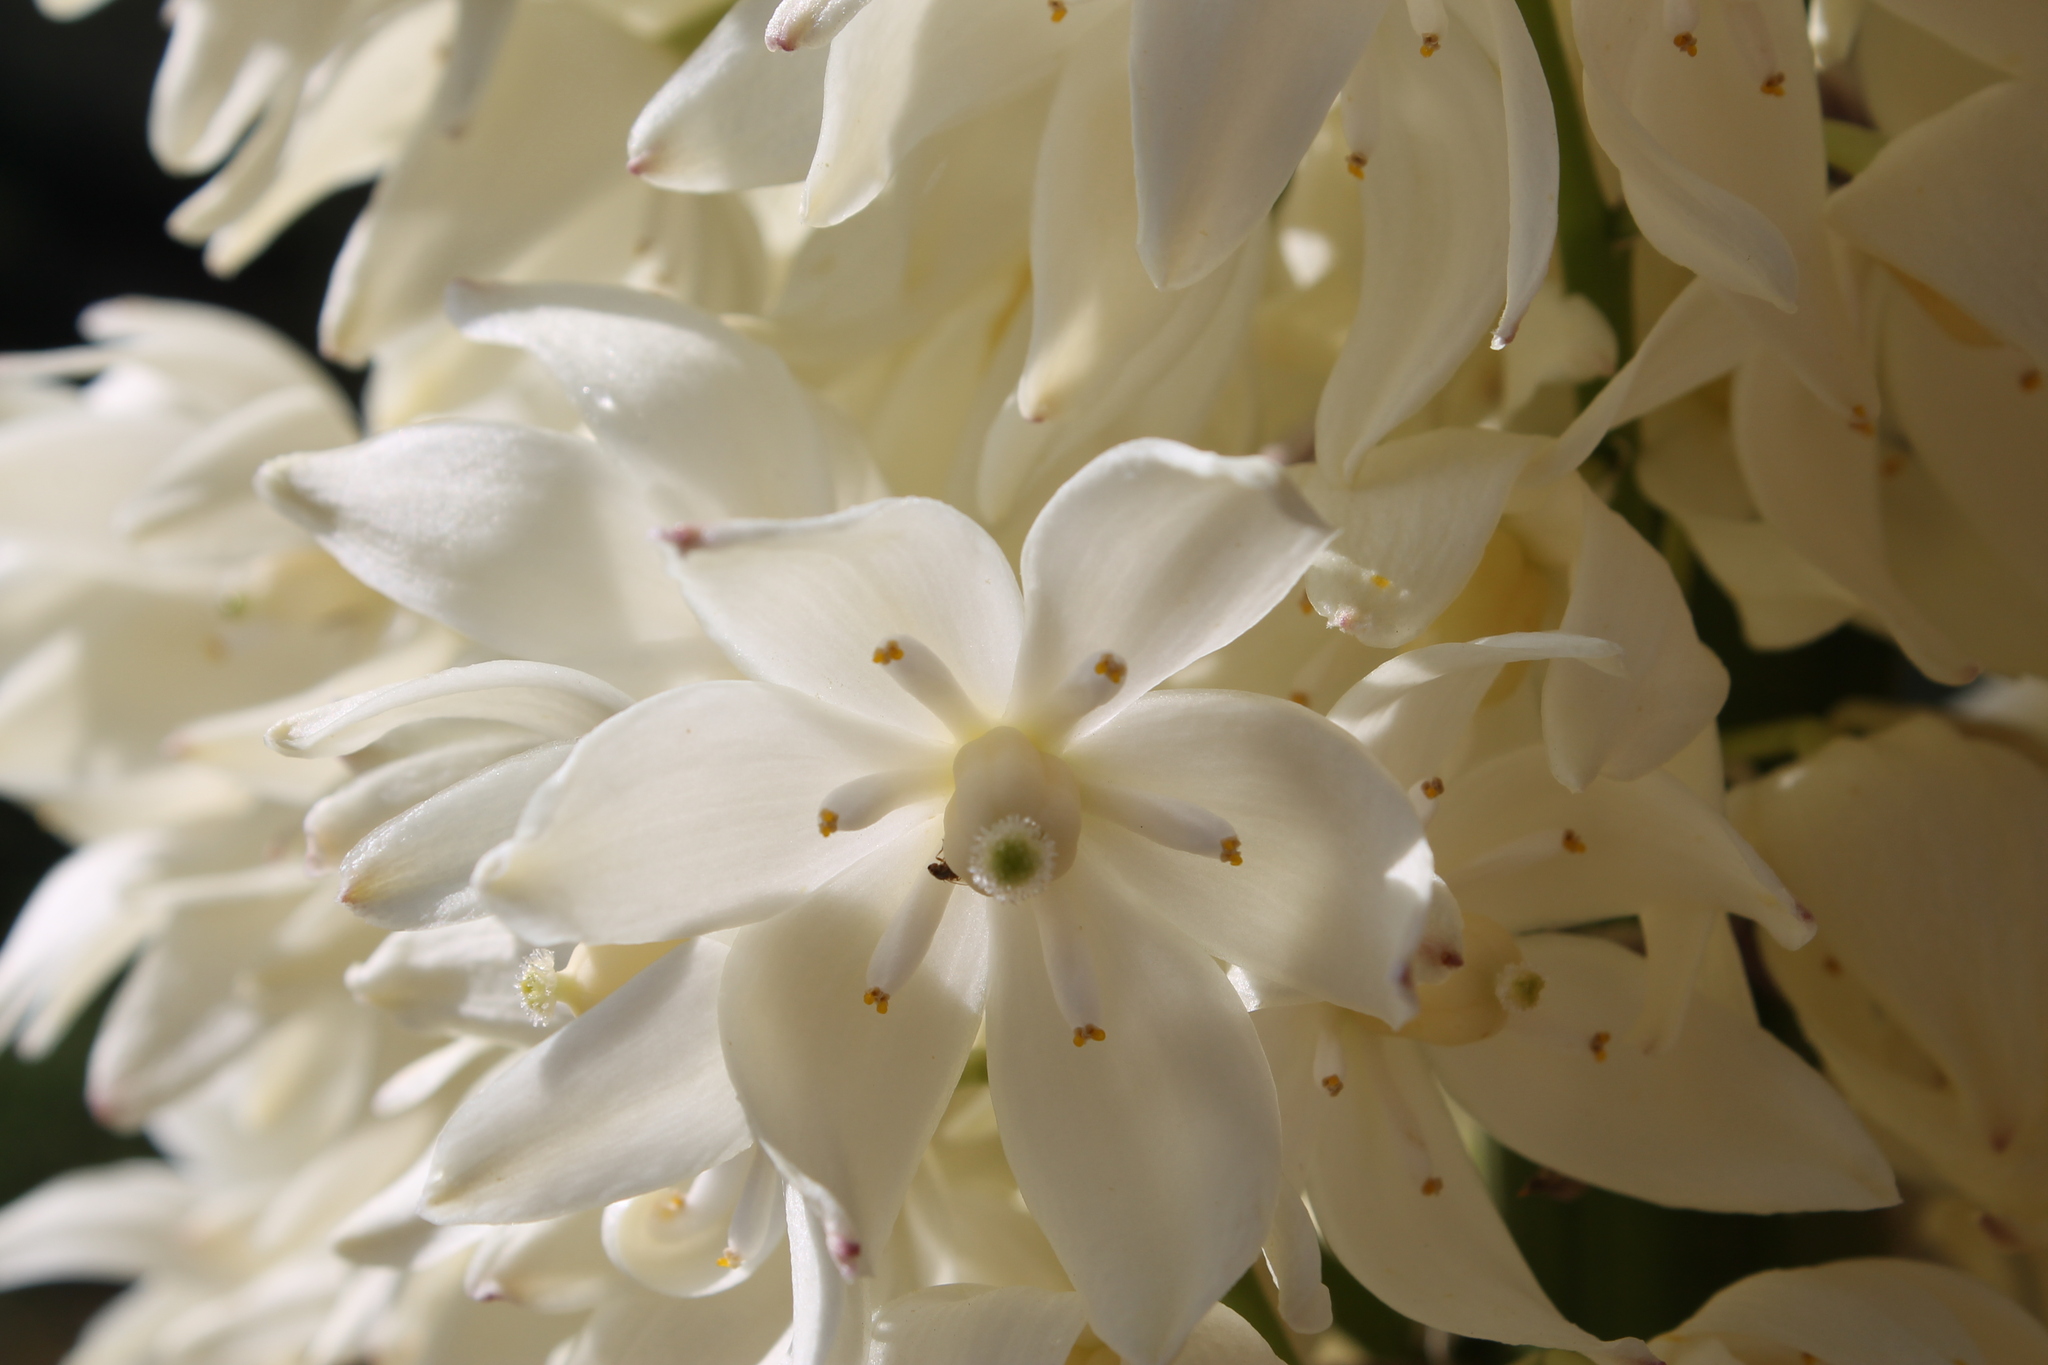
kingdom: Plantae
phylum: Tracheophyta
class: Liliopsida
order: Asparagales
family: Asparagaceae
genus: Hesperoyucca
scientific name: Hesperoyucca whipplei
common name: Our lord's-candle
